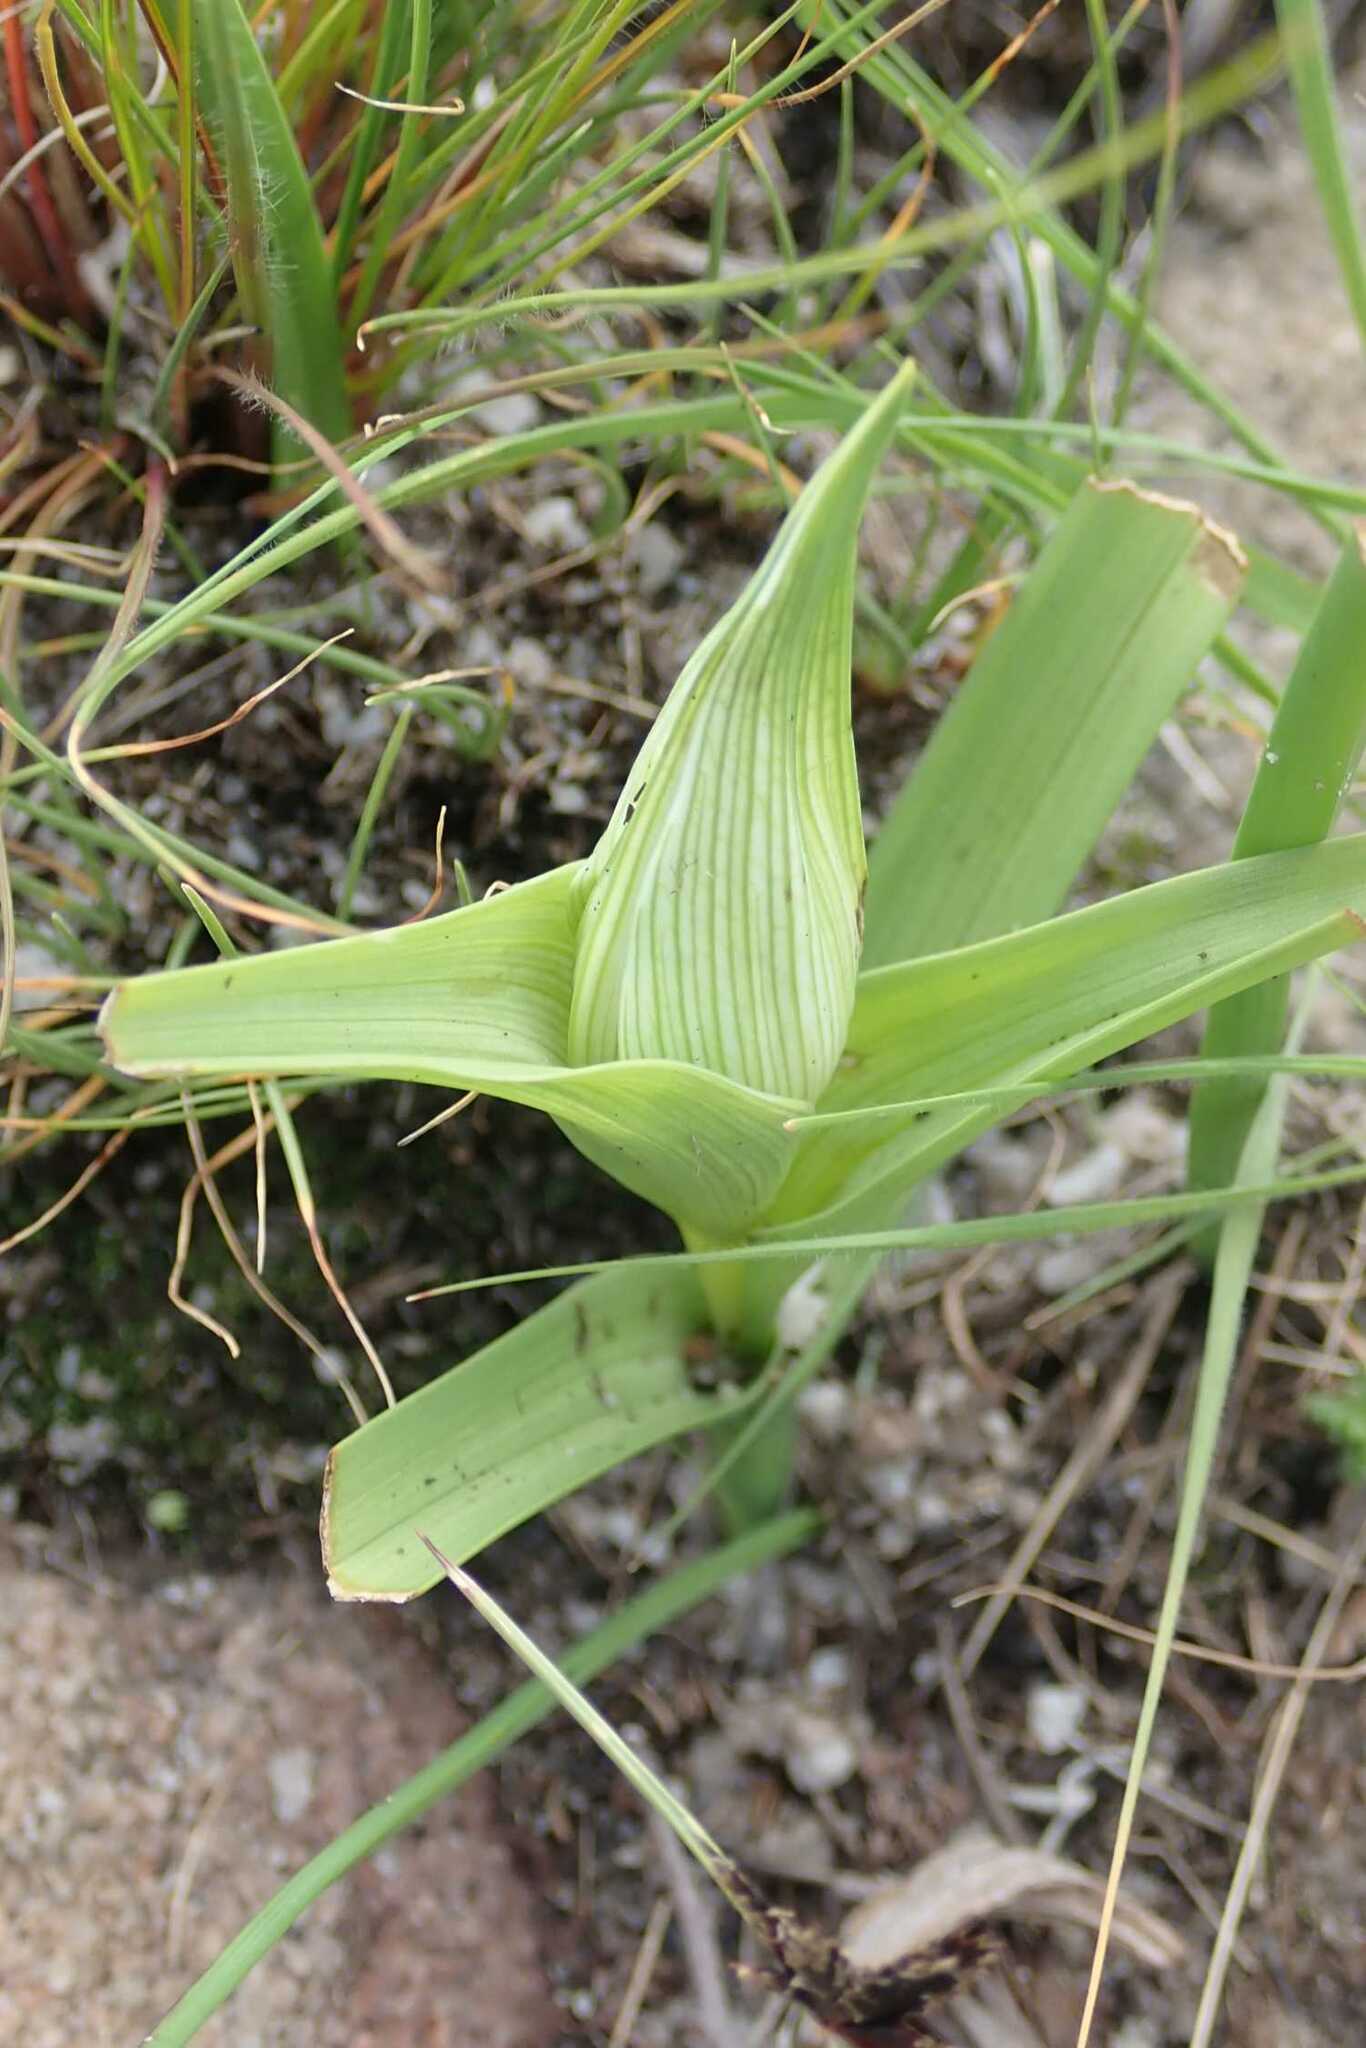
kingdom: Plantae
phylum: Tracheophyta
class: Liliopsida
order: Liliales
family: Colchicaceae
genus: Colchicum
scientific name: Colchicum striatum
